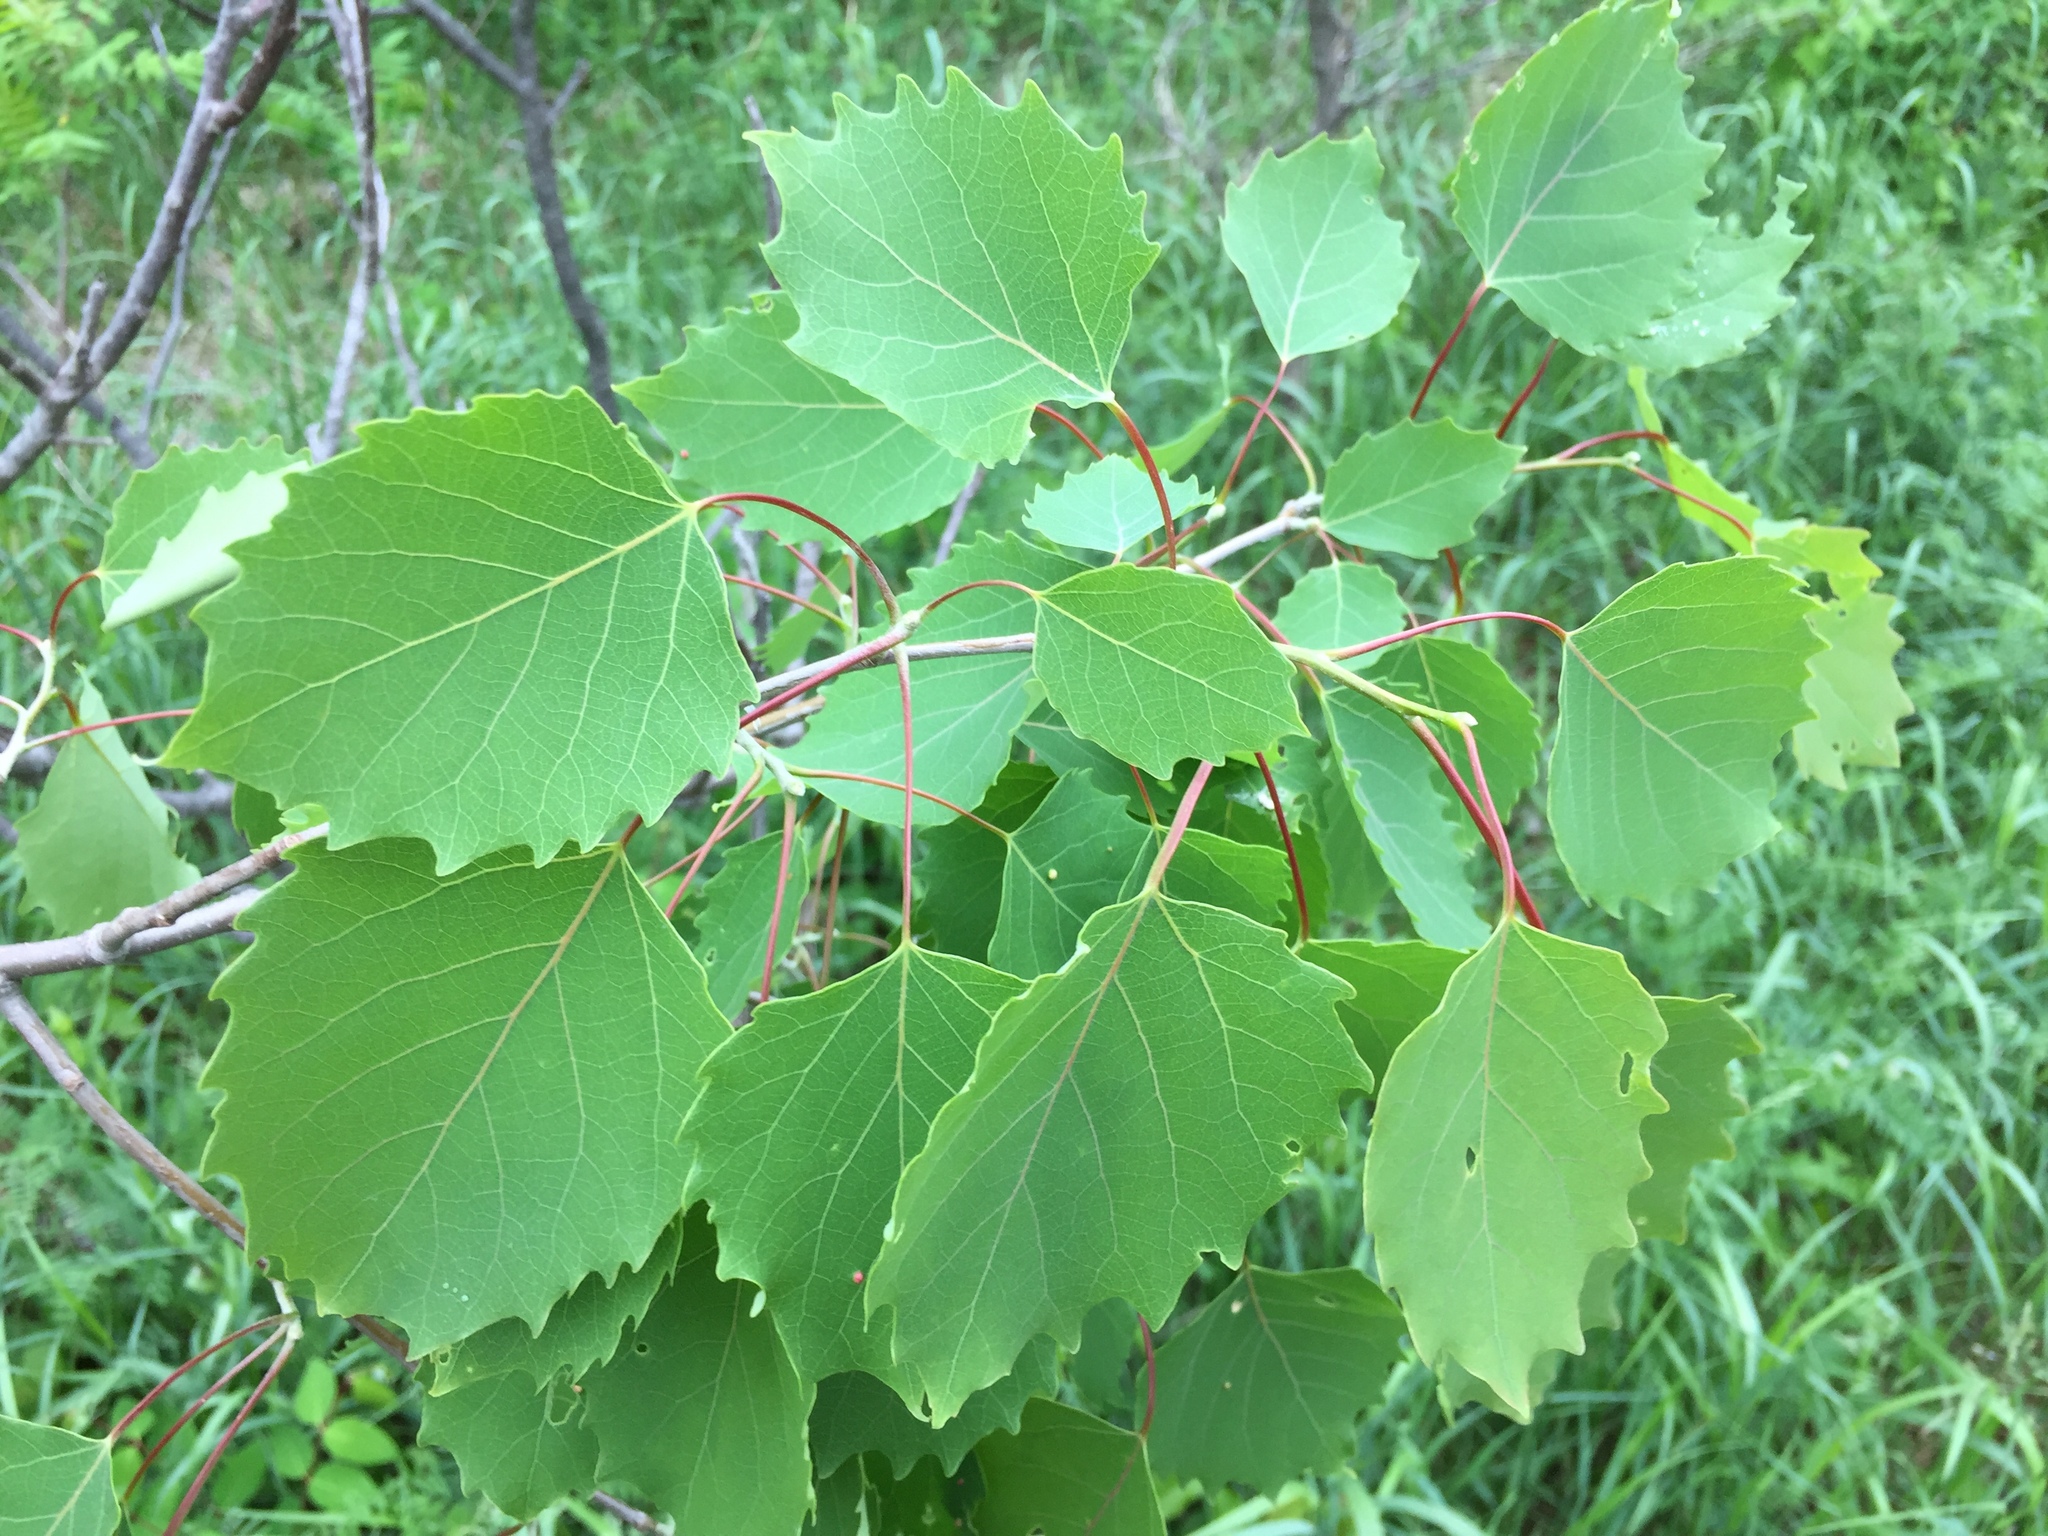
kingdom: Plantae
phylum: Tracheophyta
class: Magnoliopsida
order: Malpighiales
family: Salicaceae
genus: Populus
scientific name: Populus grandidentata
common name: Bigtooth aspen
